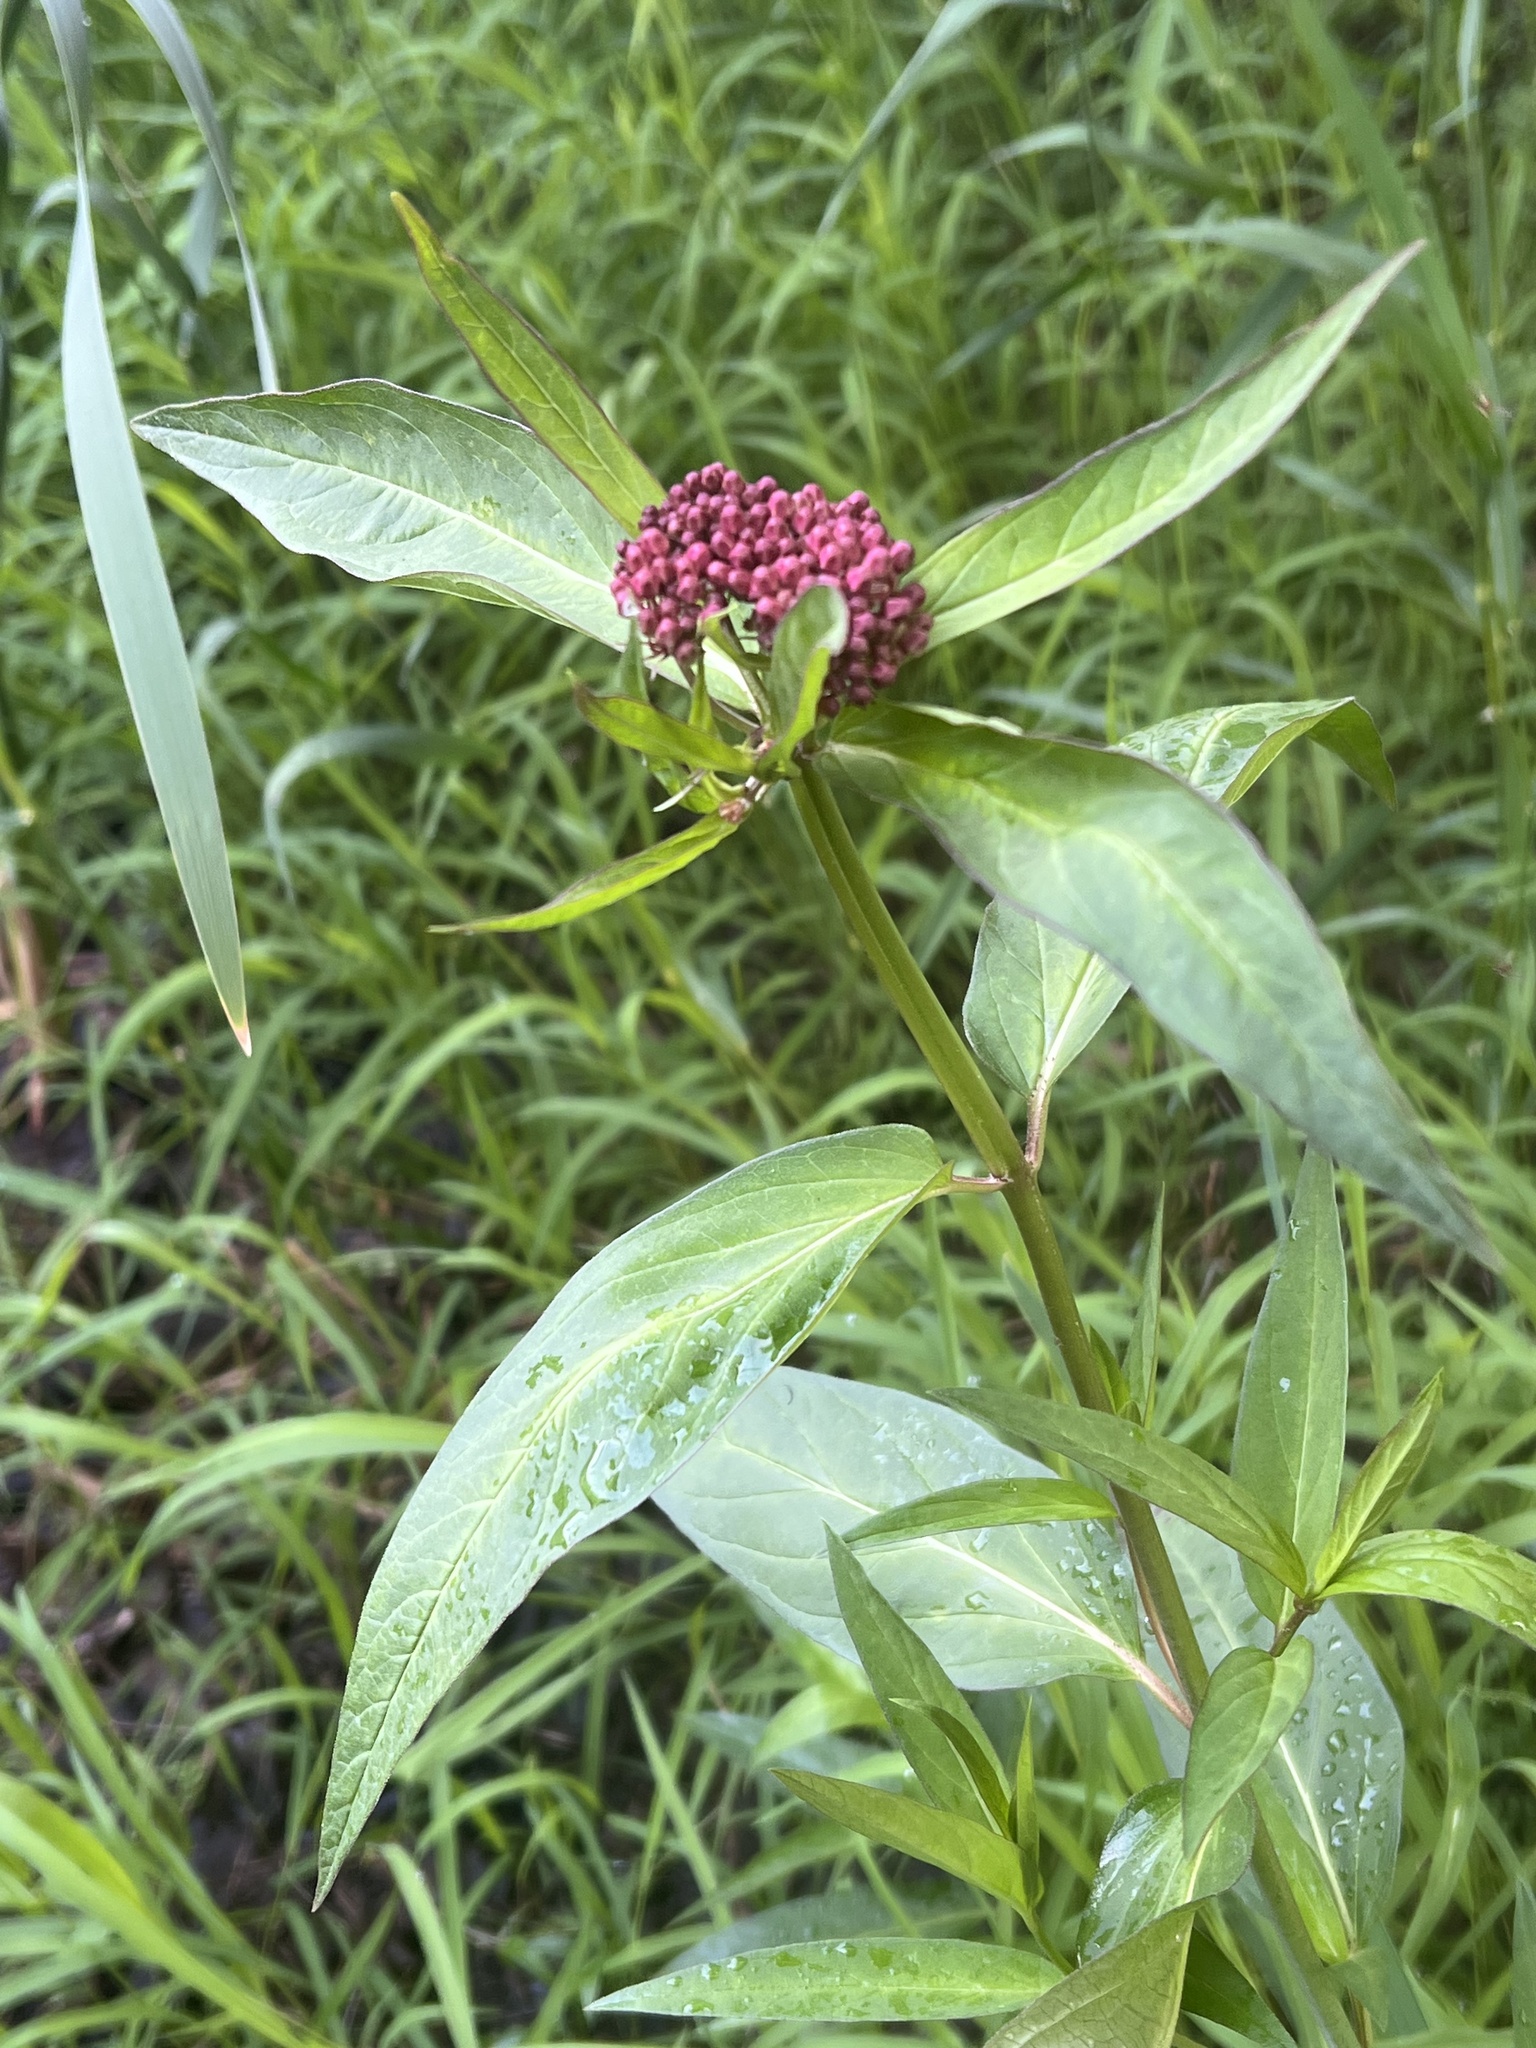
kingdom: Plantae
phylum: Tracheophyta
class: Magnoliopsida
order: Gentianales
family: Apocynaceae
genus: Asclepias
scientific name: Asclepias incarnata
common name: Swamp milkweed
